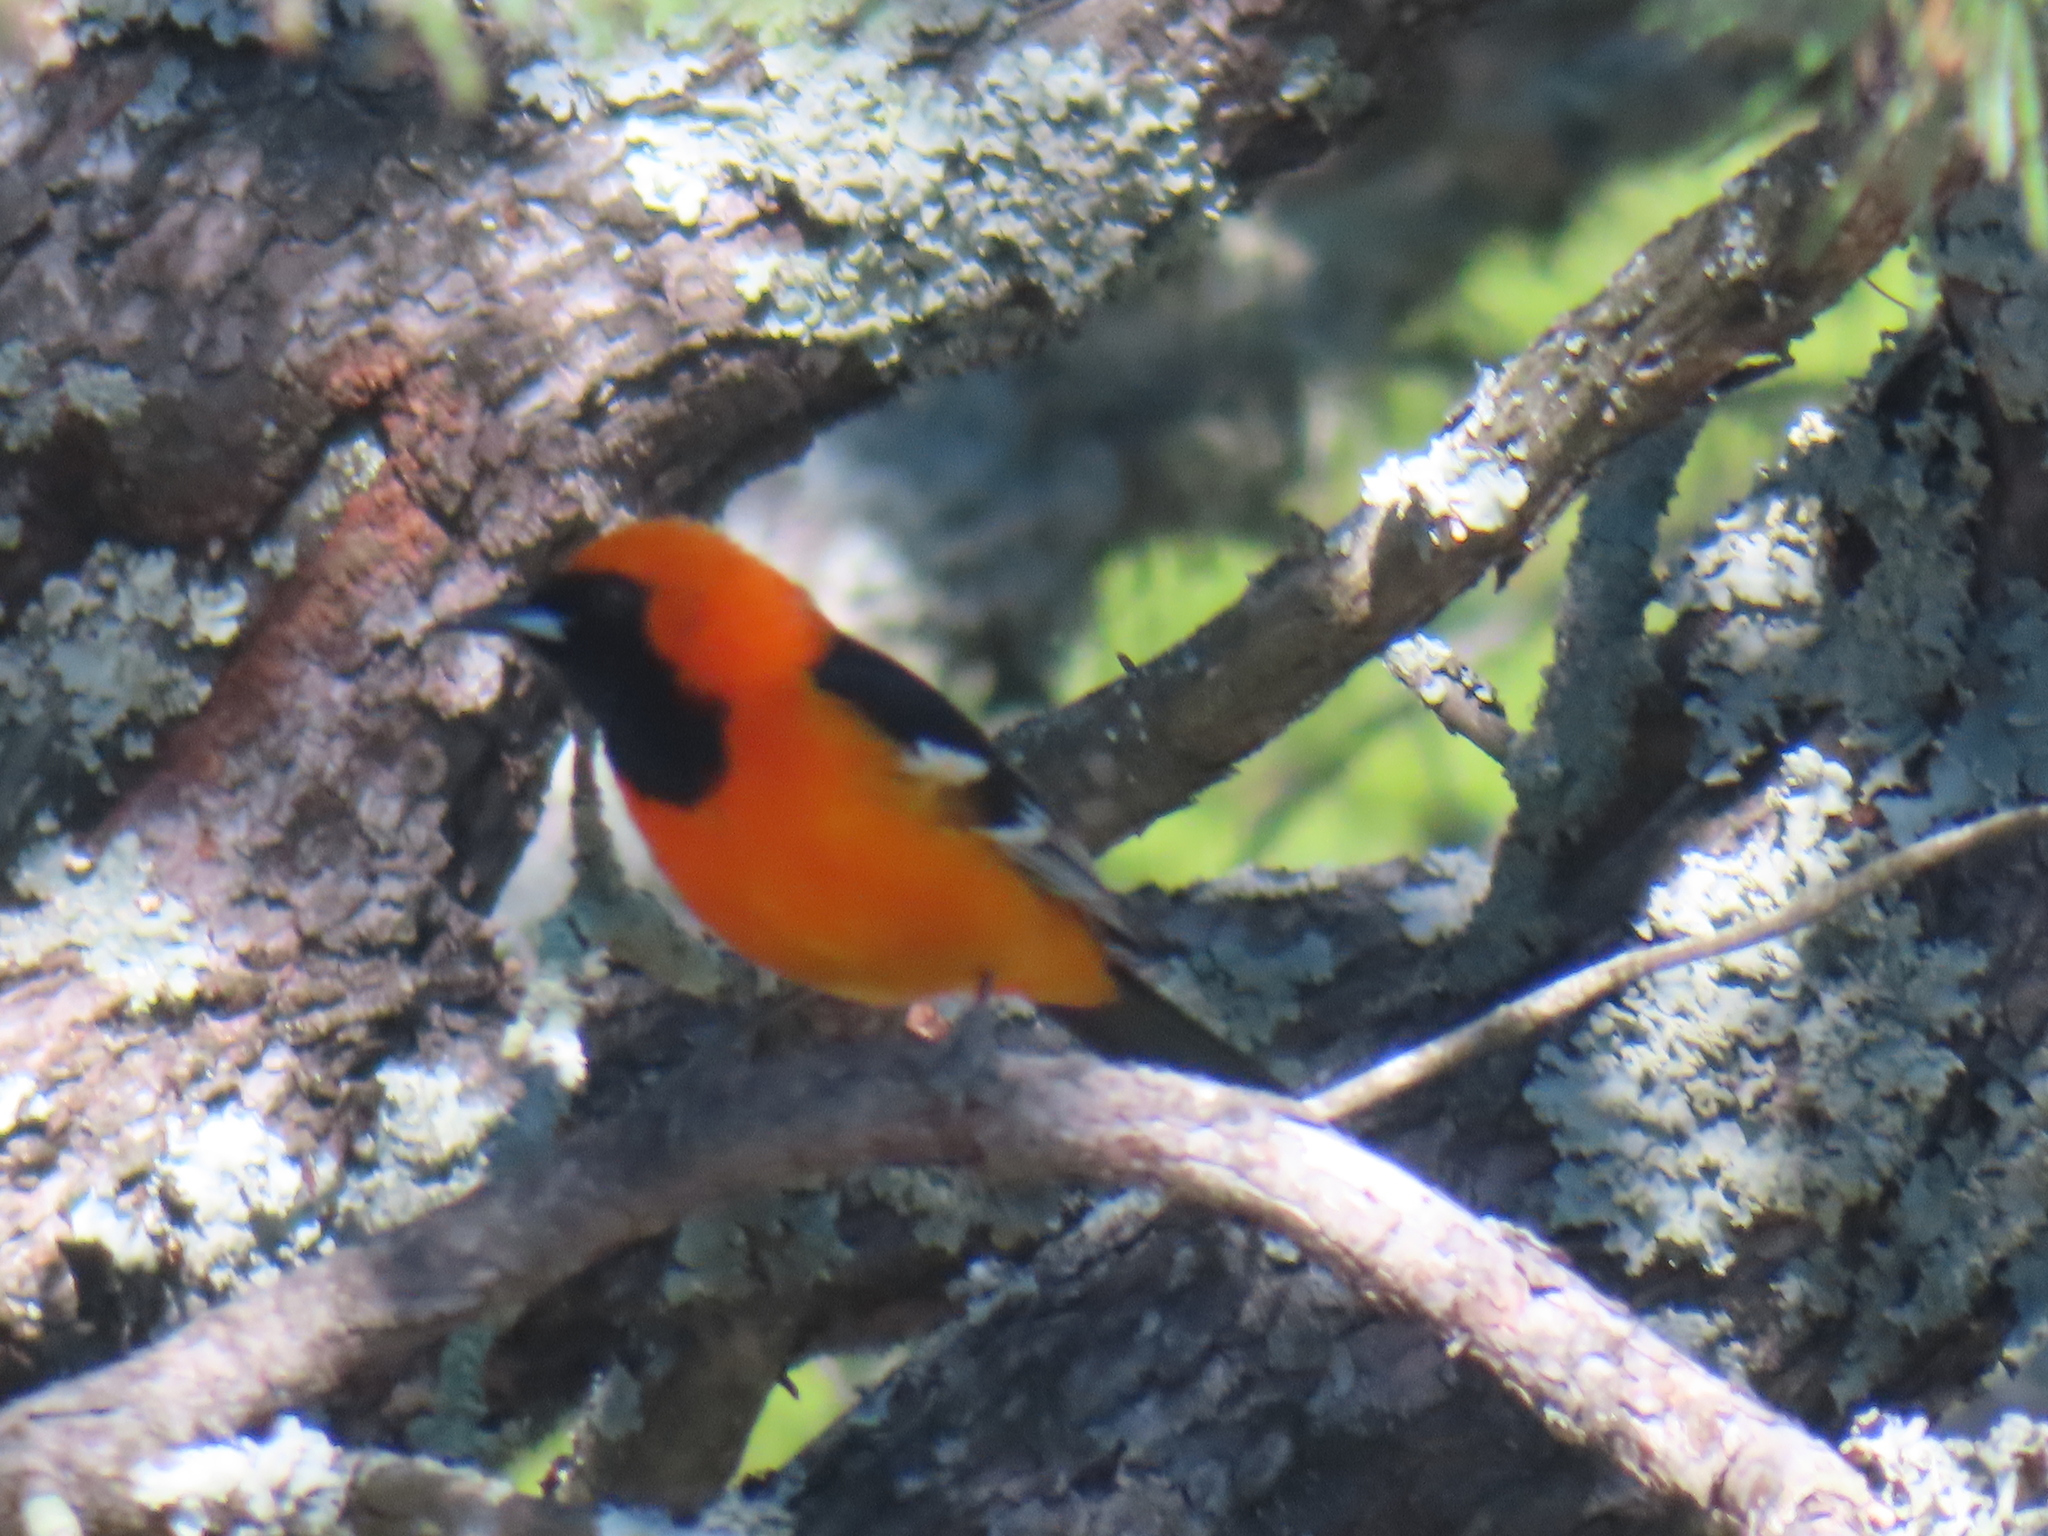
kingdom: Animalia
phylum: Chordata
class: Aves
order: Passeriformes
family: Icteridae
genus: Icterus
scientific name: Icterus cucullatus
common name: Hooded oriole
